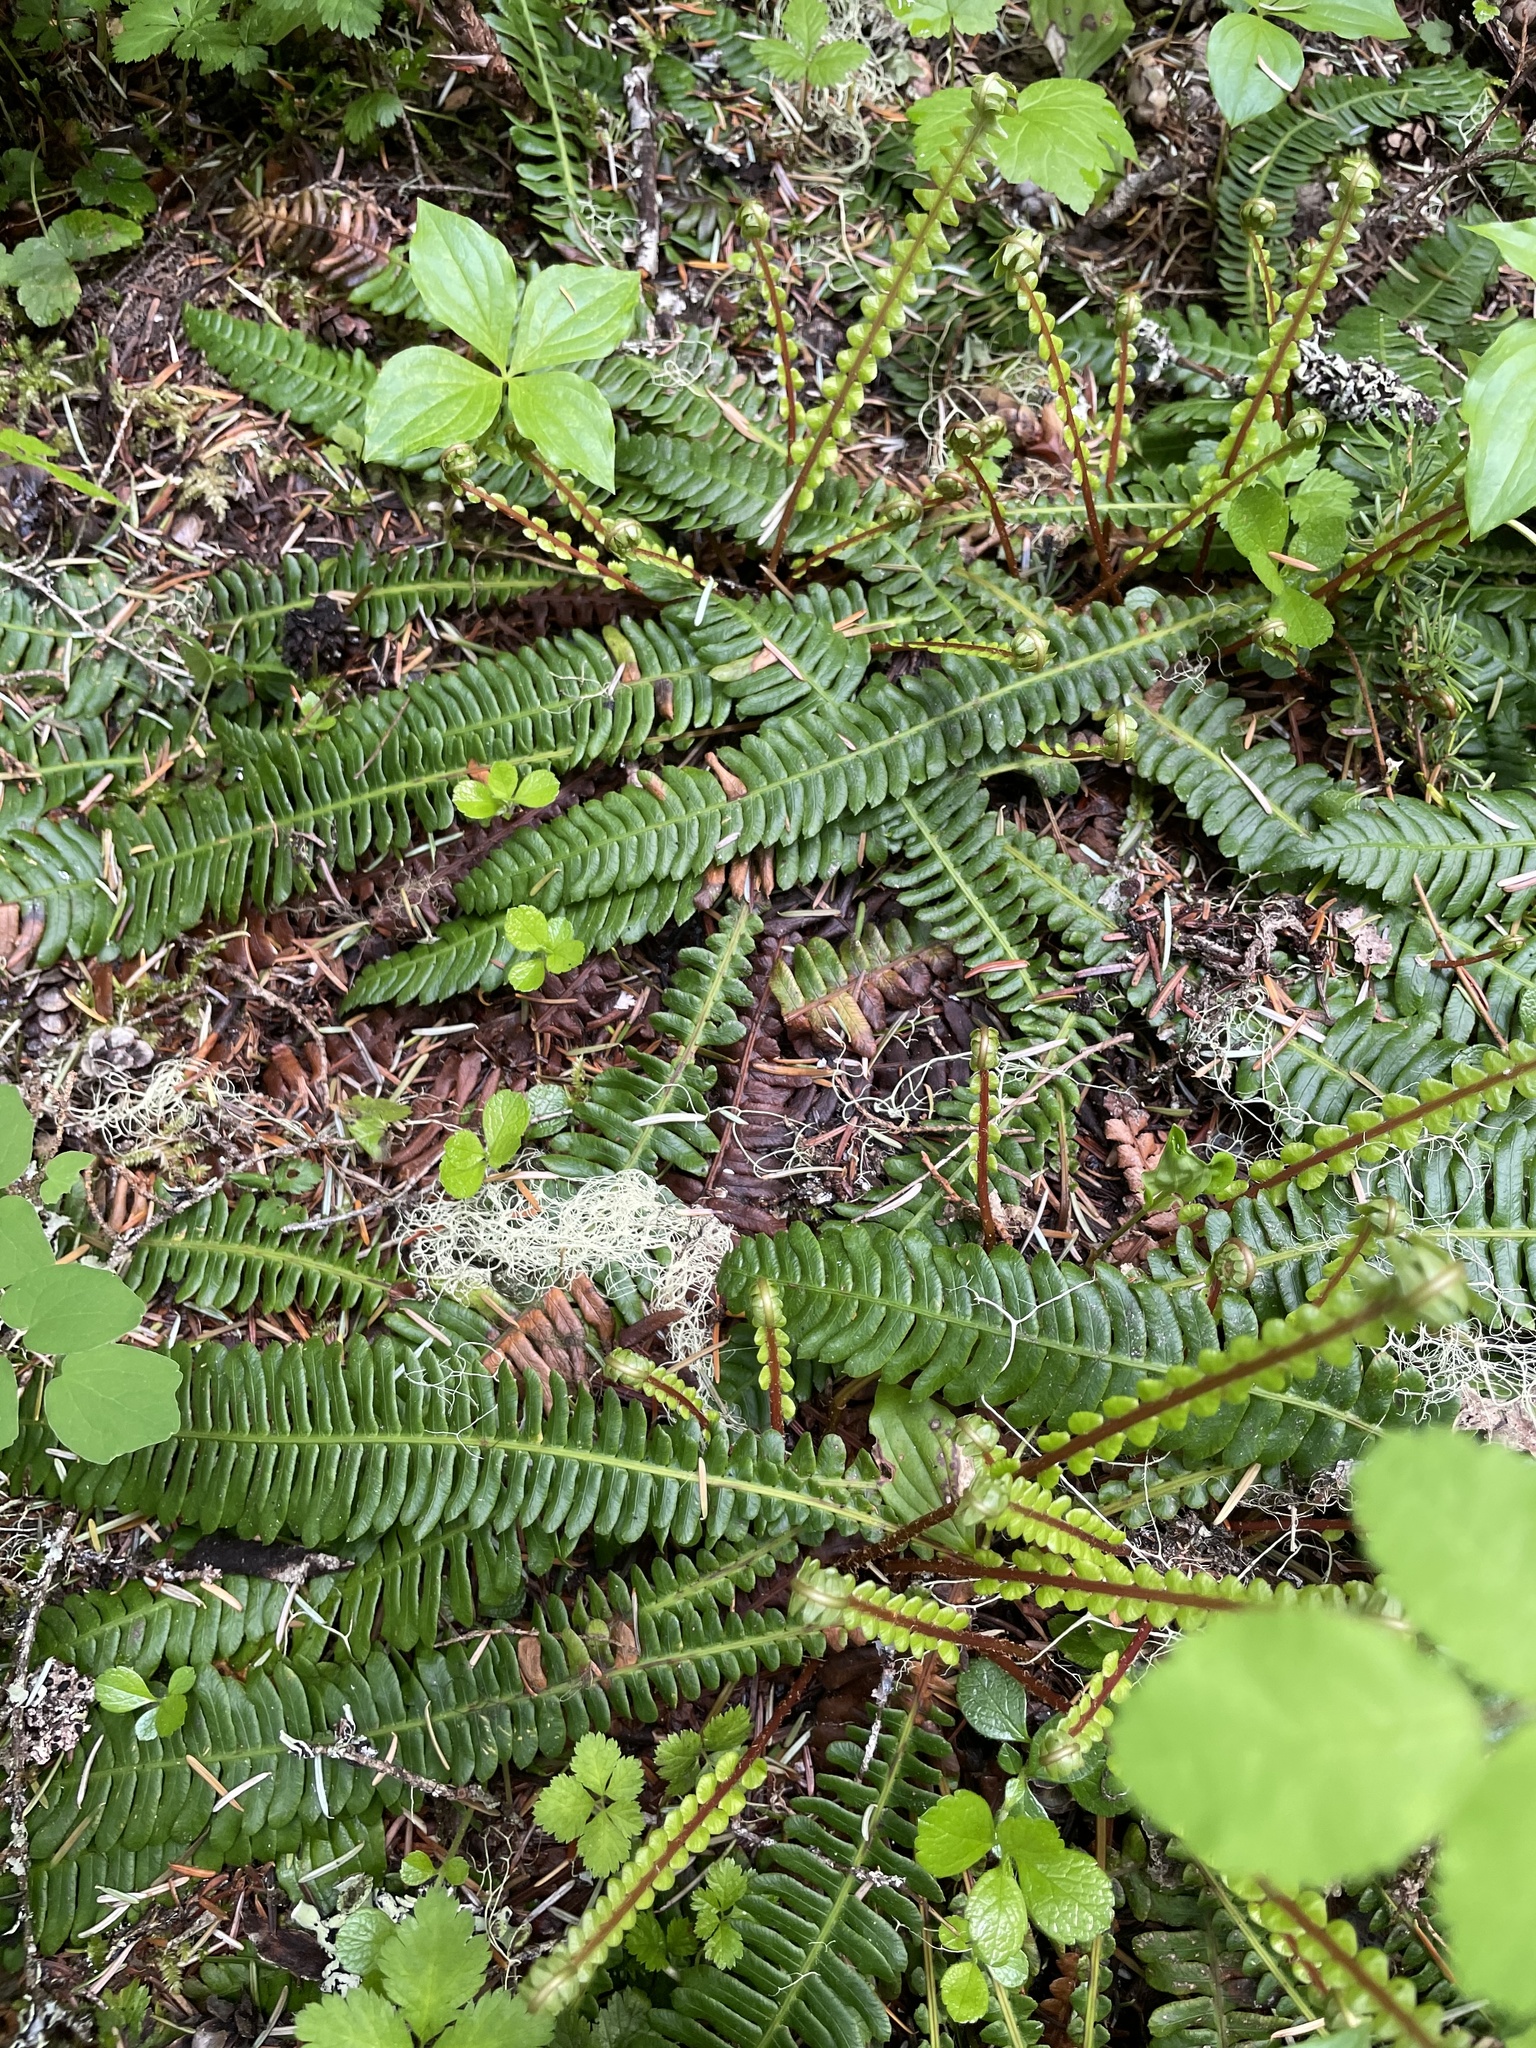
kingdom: Plantae
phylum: Tracheophyta
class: Polypodiopsida
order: Polypodiales
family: Blechnaceae
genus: Struthiopteris
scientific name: Struthiopteris spicant
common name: Deer fern
